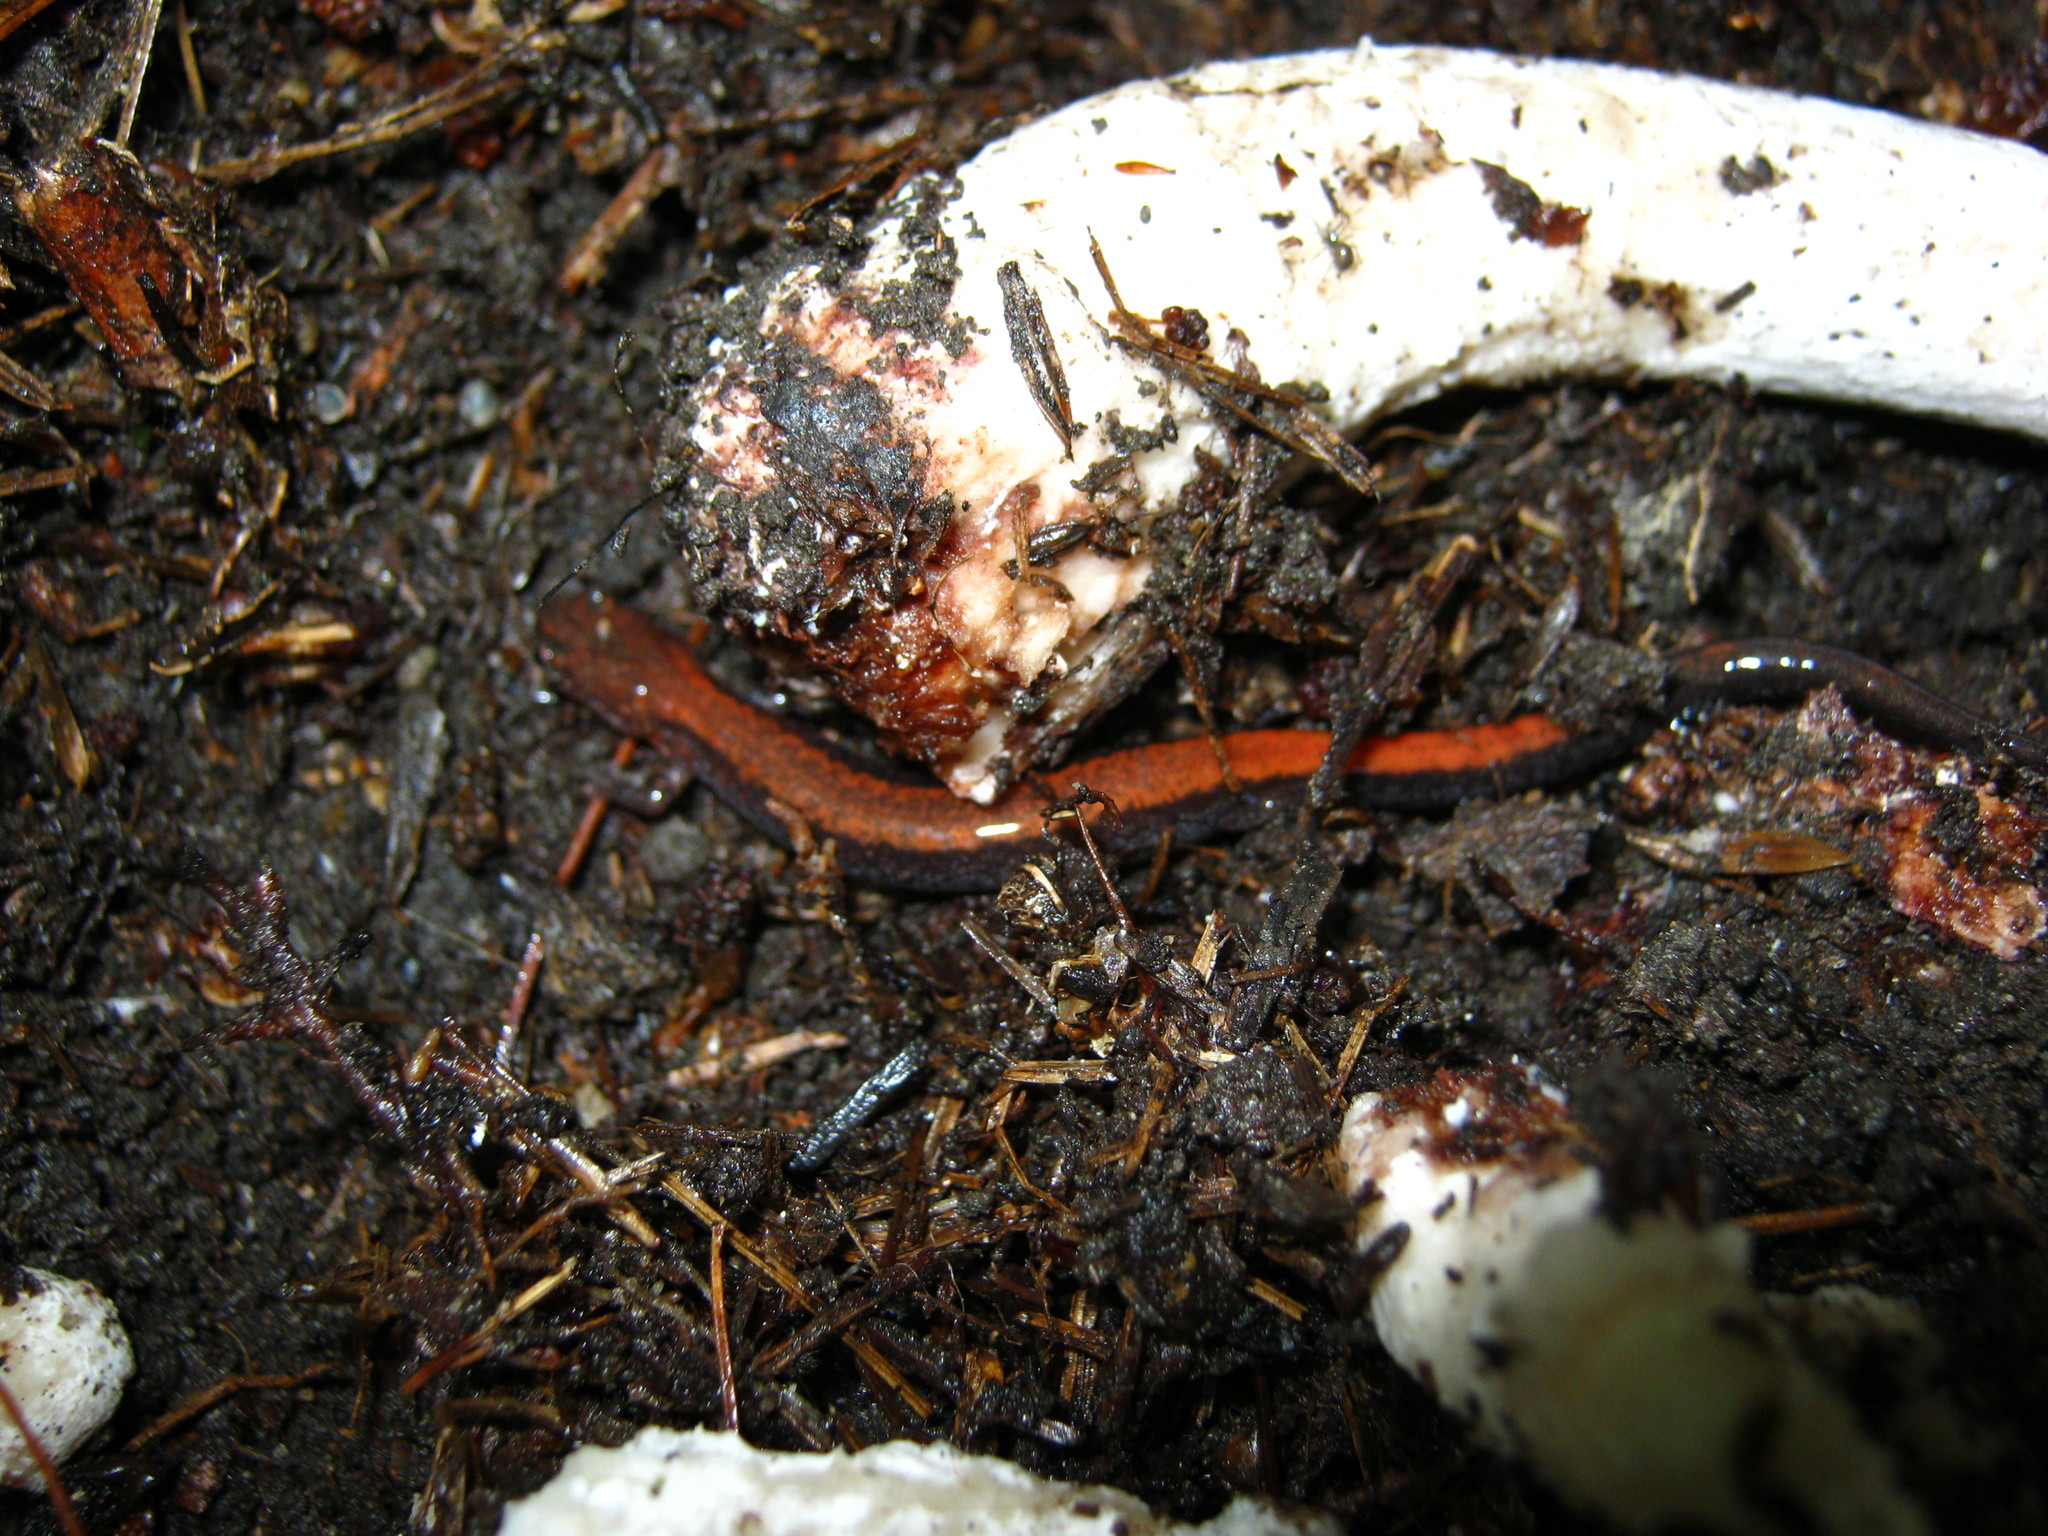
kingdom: Fungi
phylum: Ascomycota
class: Sordariomycetes
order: Hypocreales
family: Hypocreaceae
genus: Hypomyces
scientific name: Hypomyces hyalinus
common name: Amanita mold
